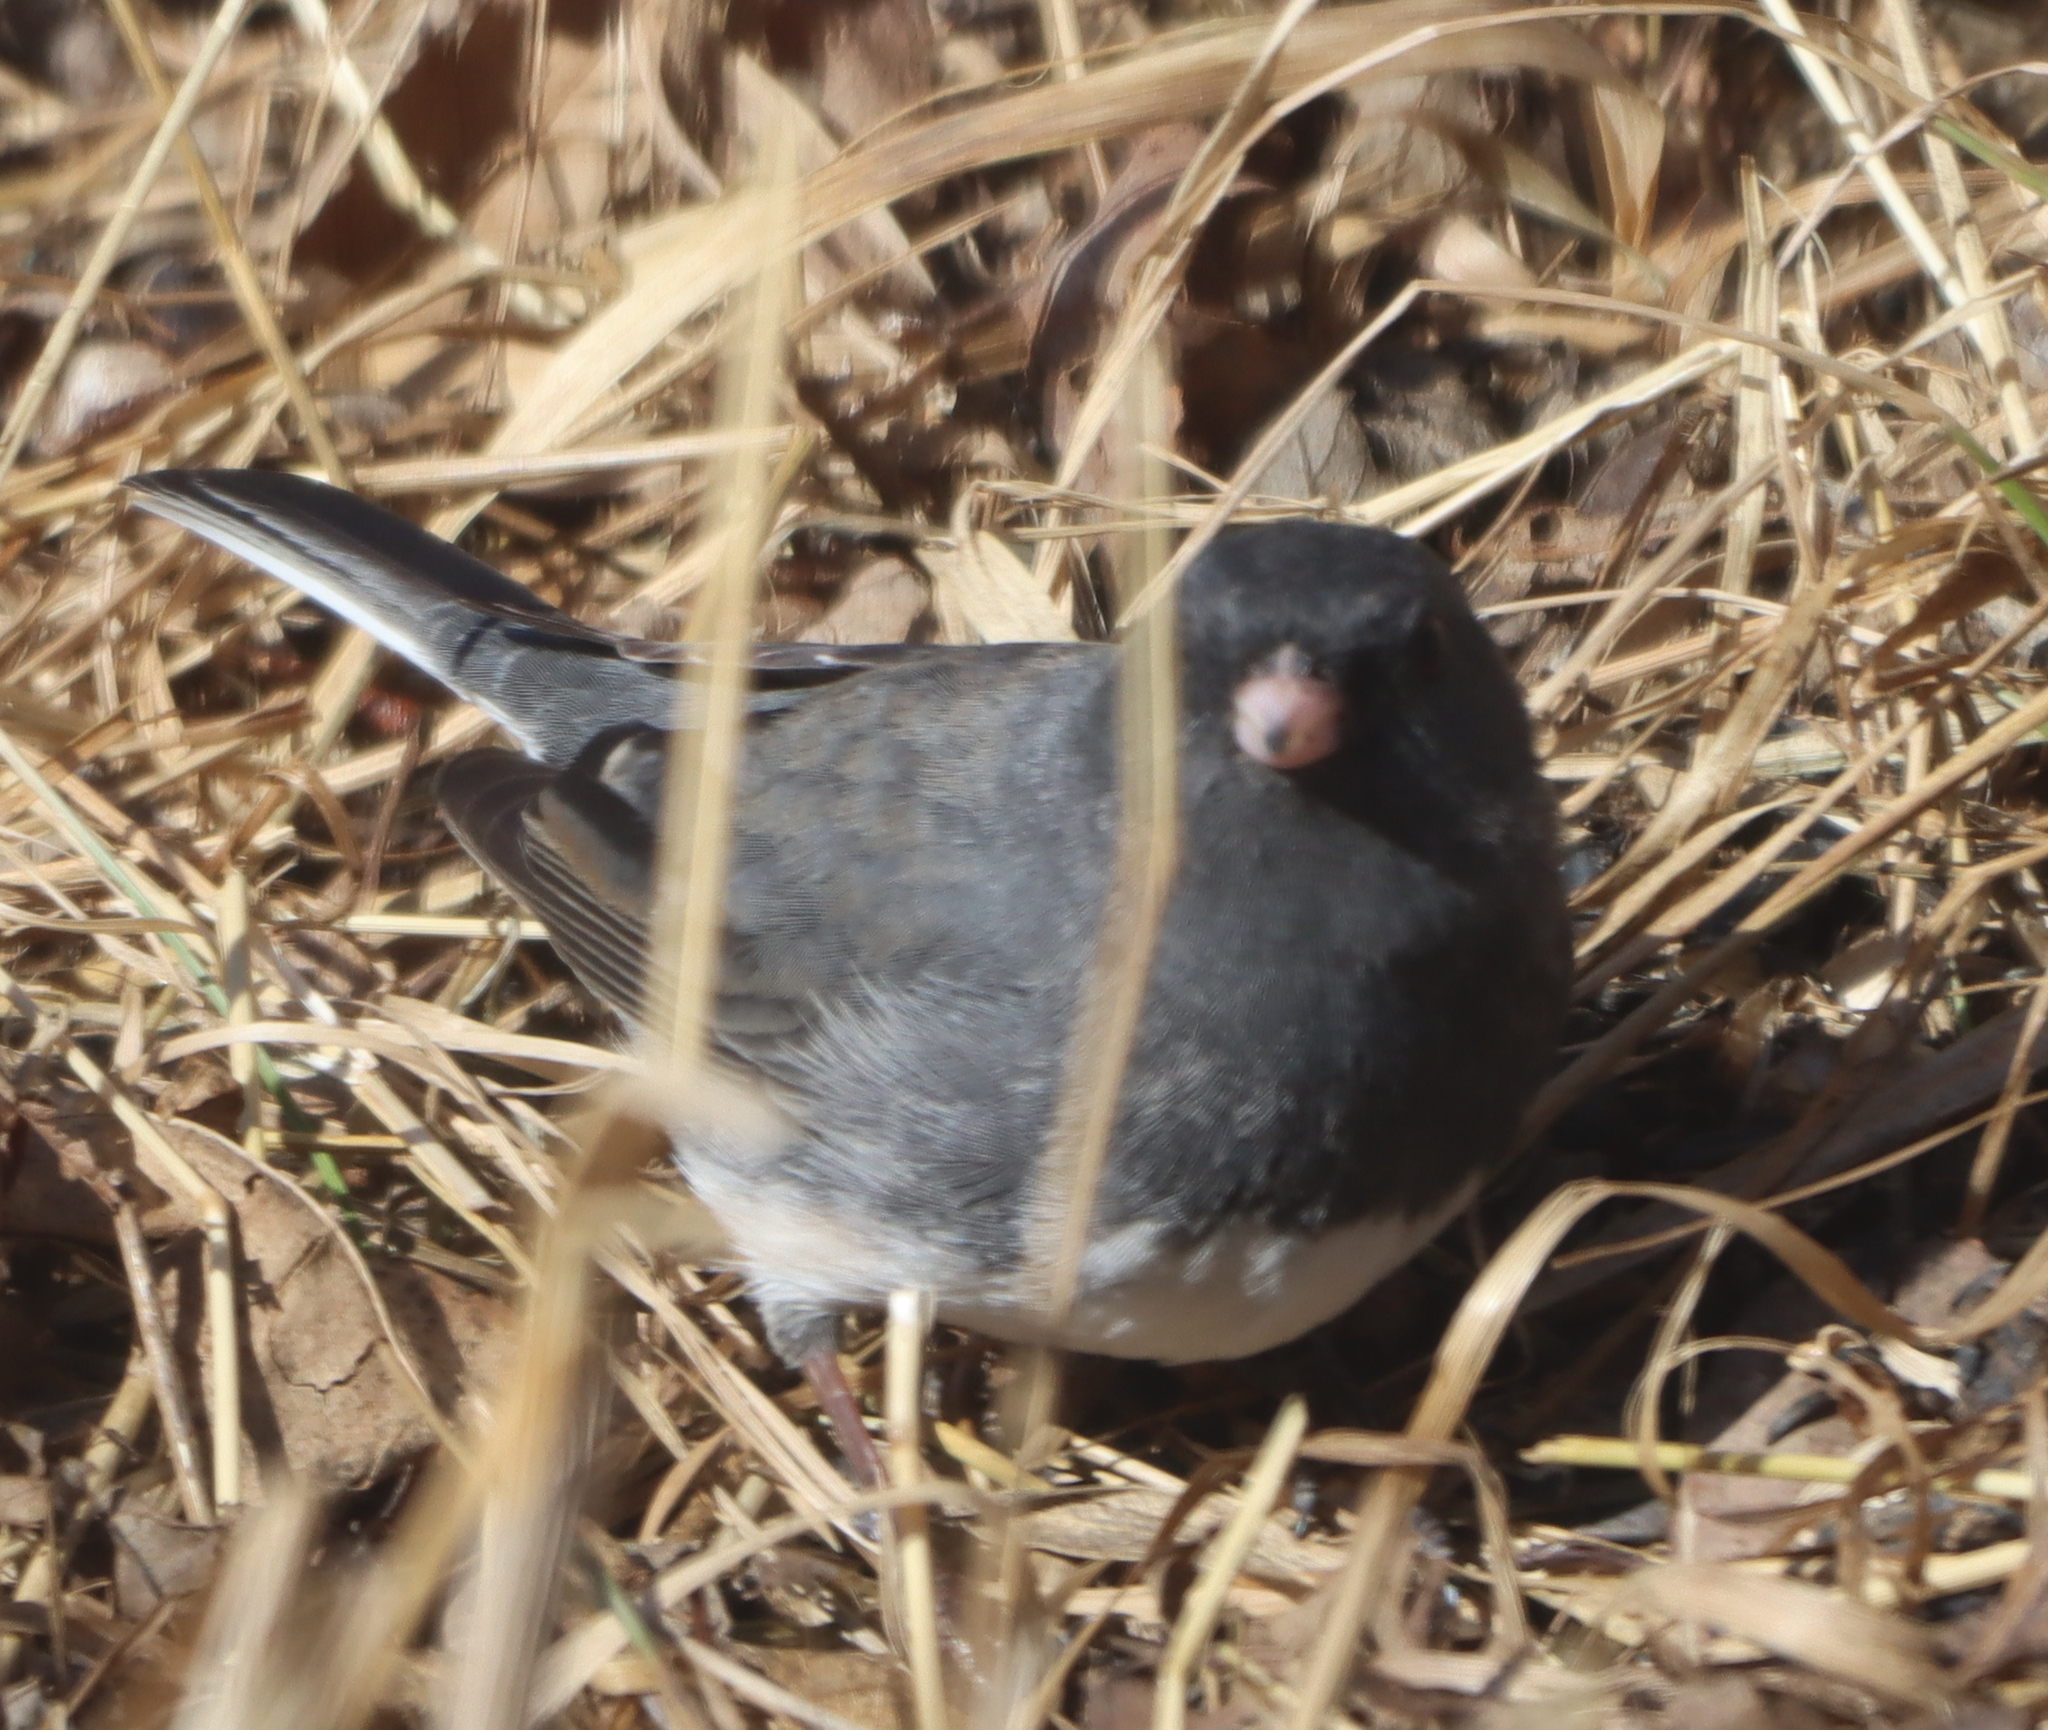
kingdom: Animalia
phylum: Chordata
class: Aves
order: Passeriformes
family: Passerellidae
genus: Junco
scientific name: Junco hyemalis
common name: Dark-eyed junco
